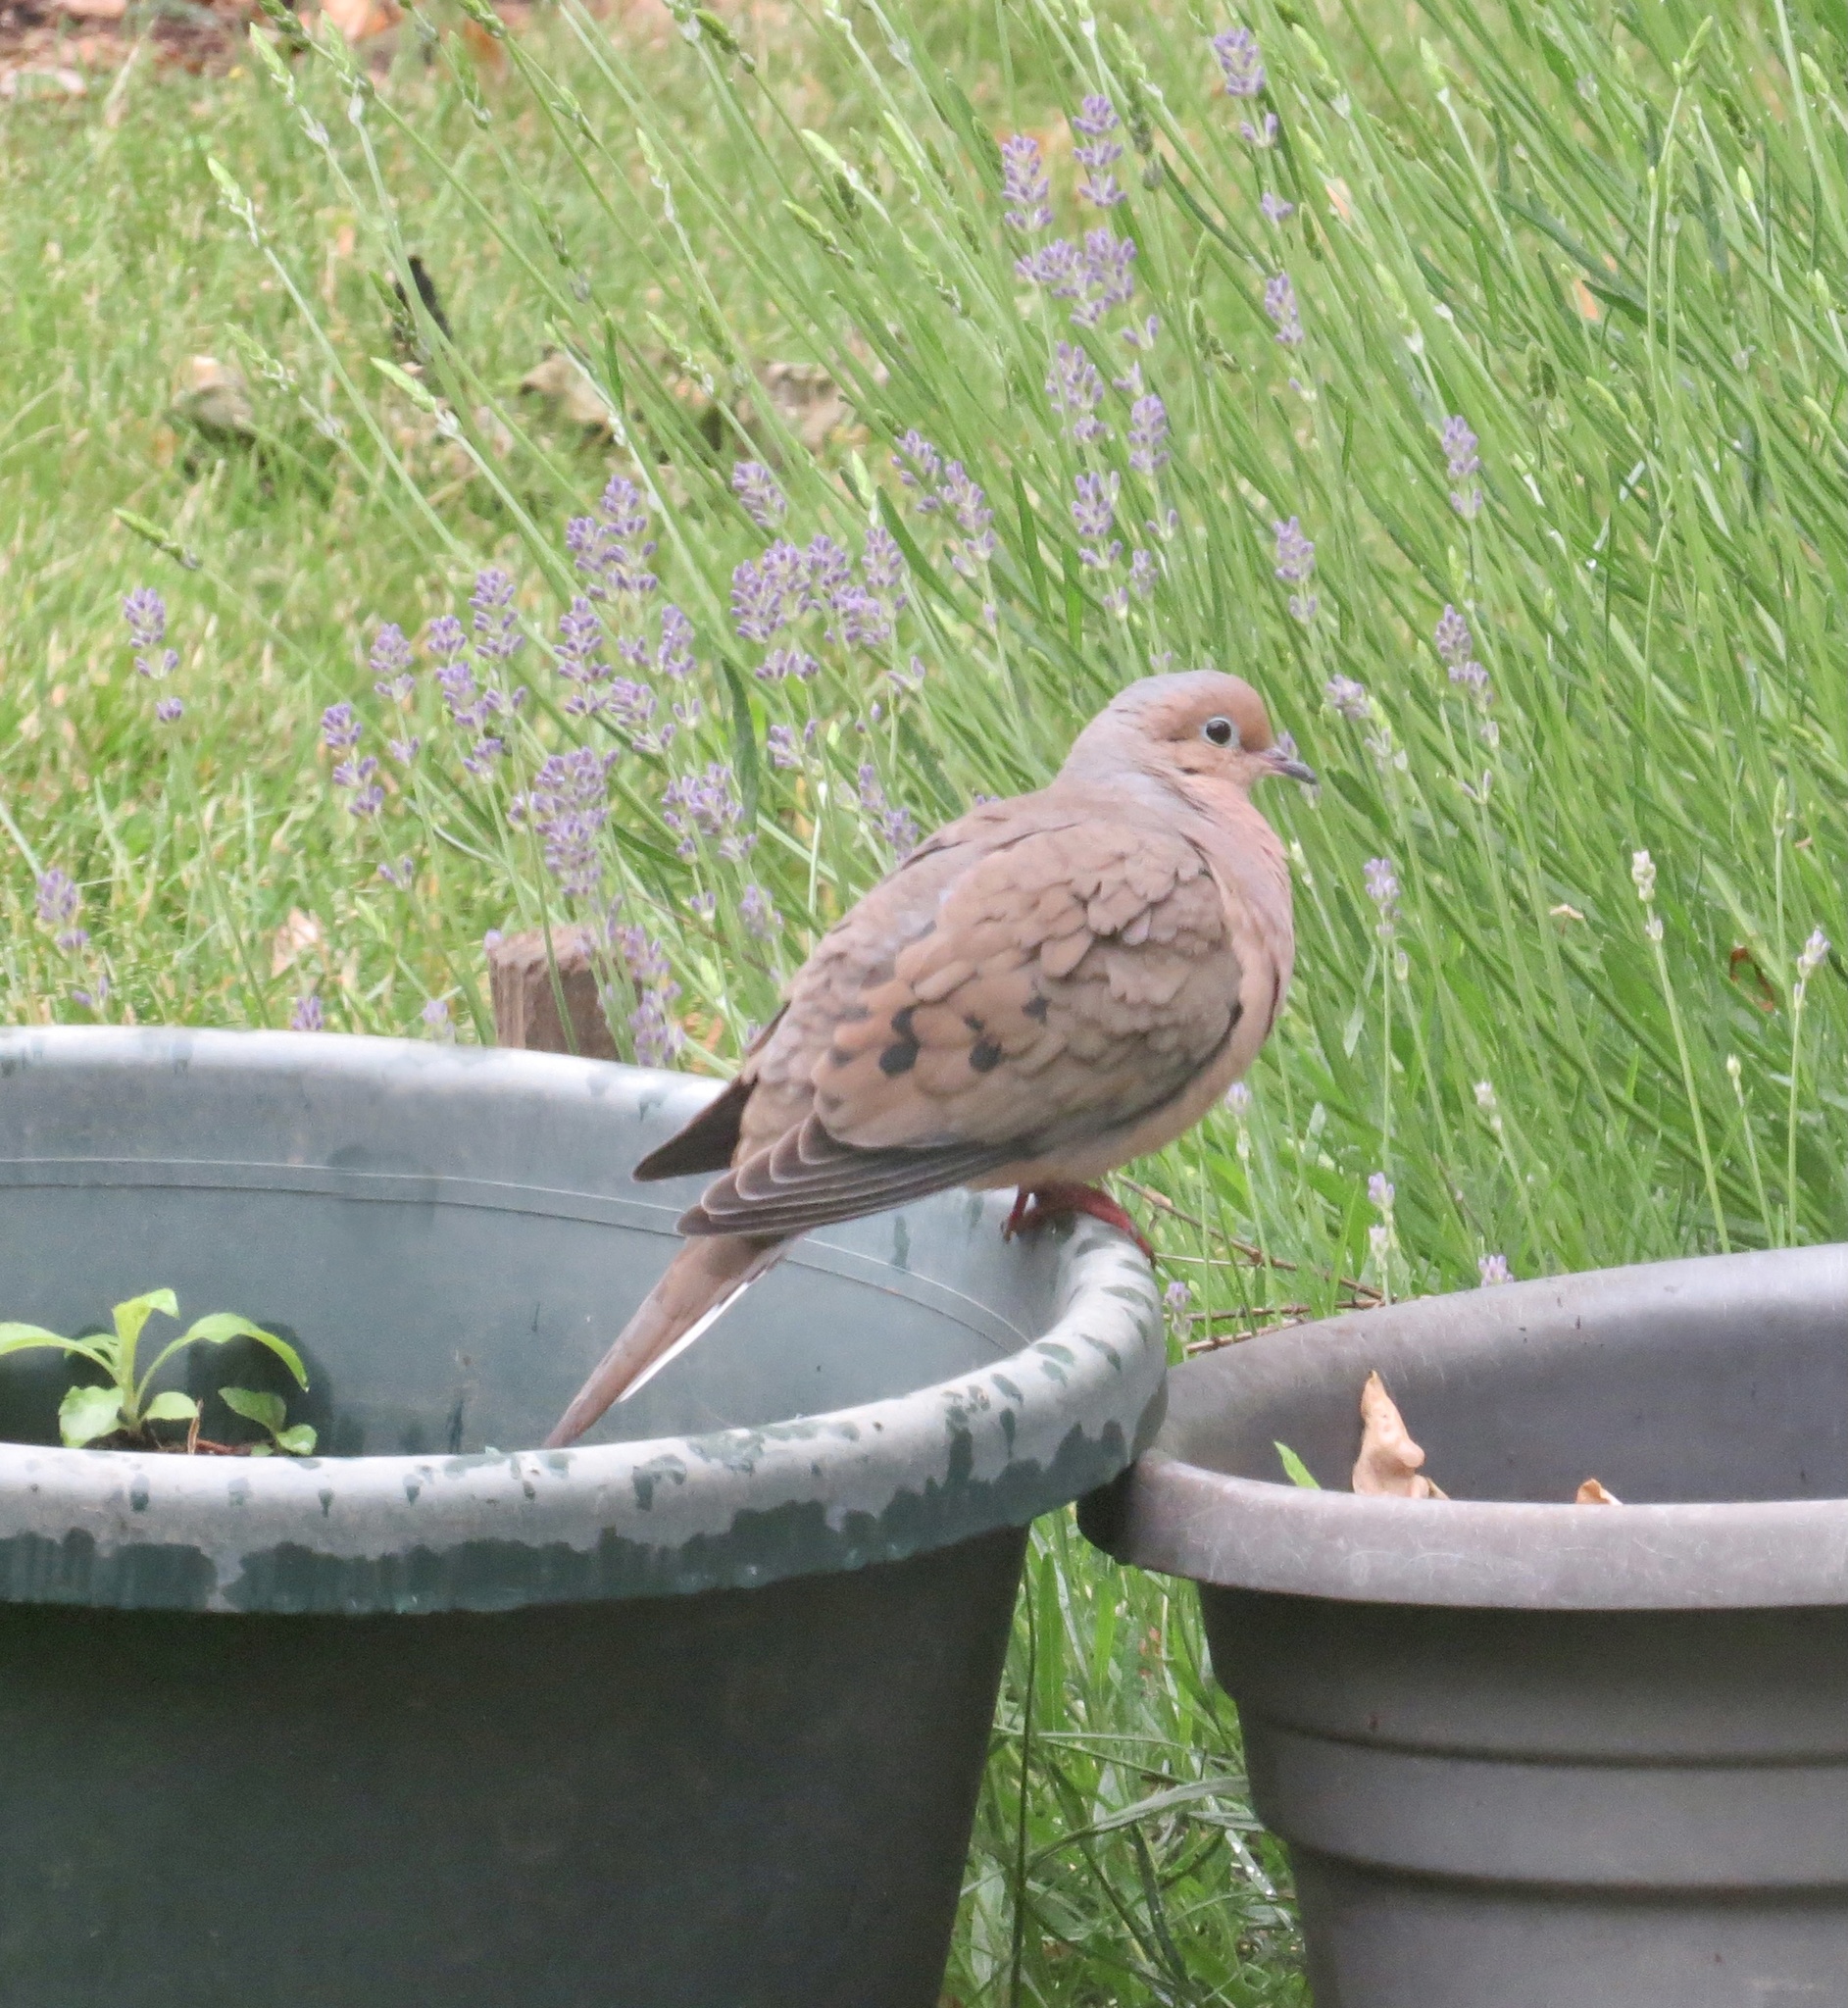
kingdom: Animalia
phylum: Chordata
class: Aves
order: Columbiformes
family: Columbidae
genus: Zenaida
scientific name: Zenaida macroura
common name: Mourning dove
